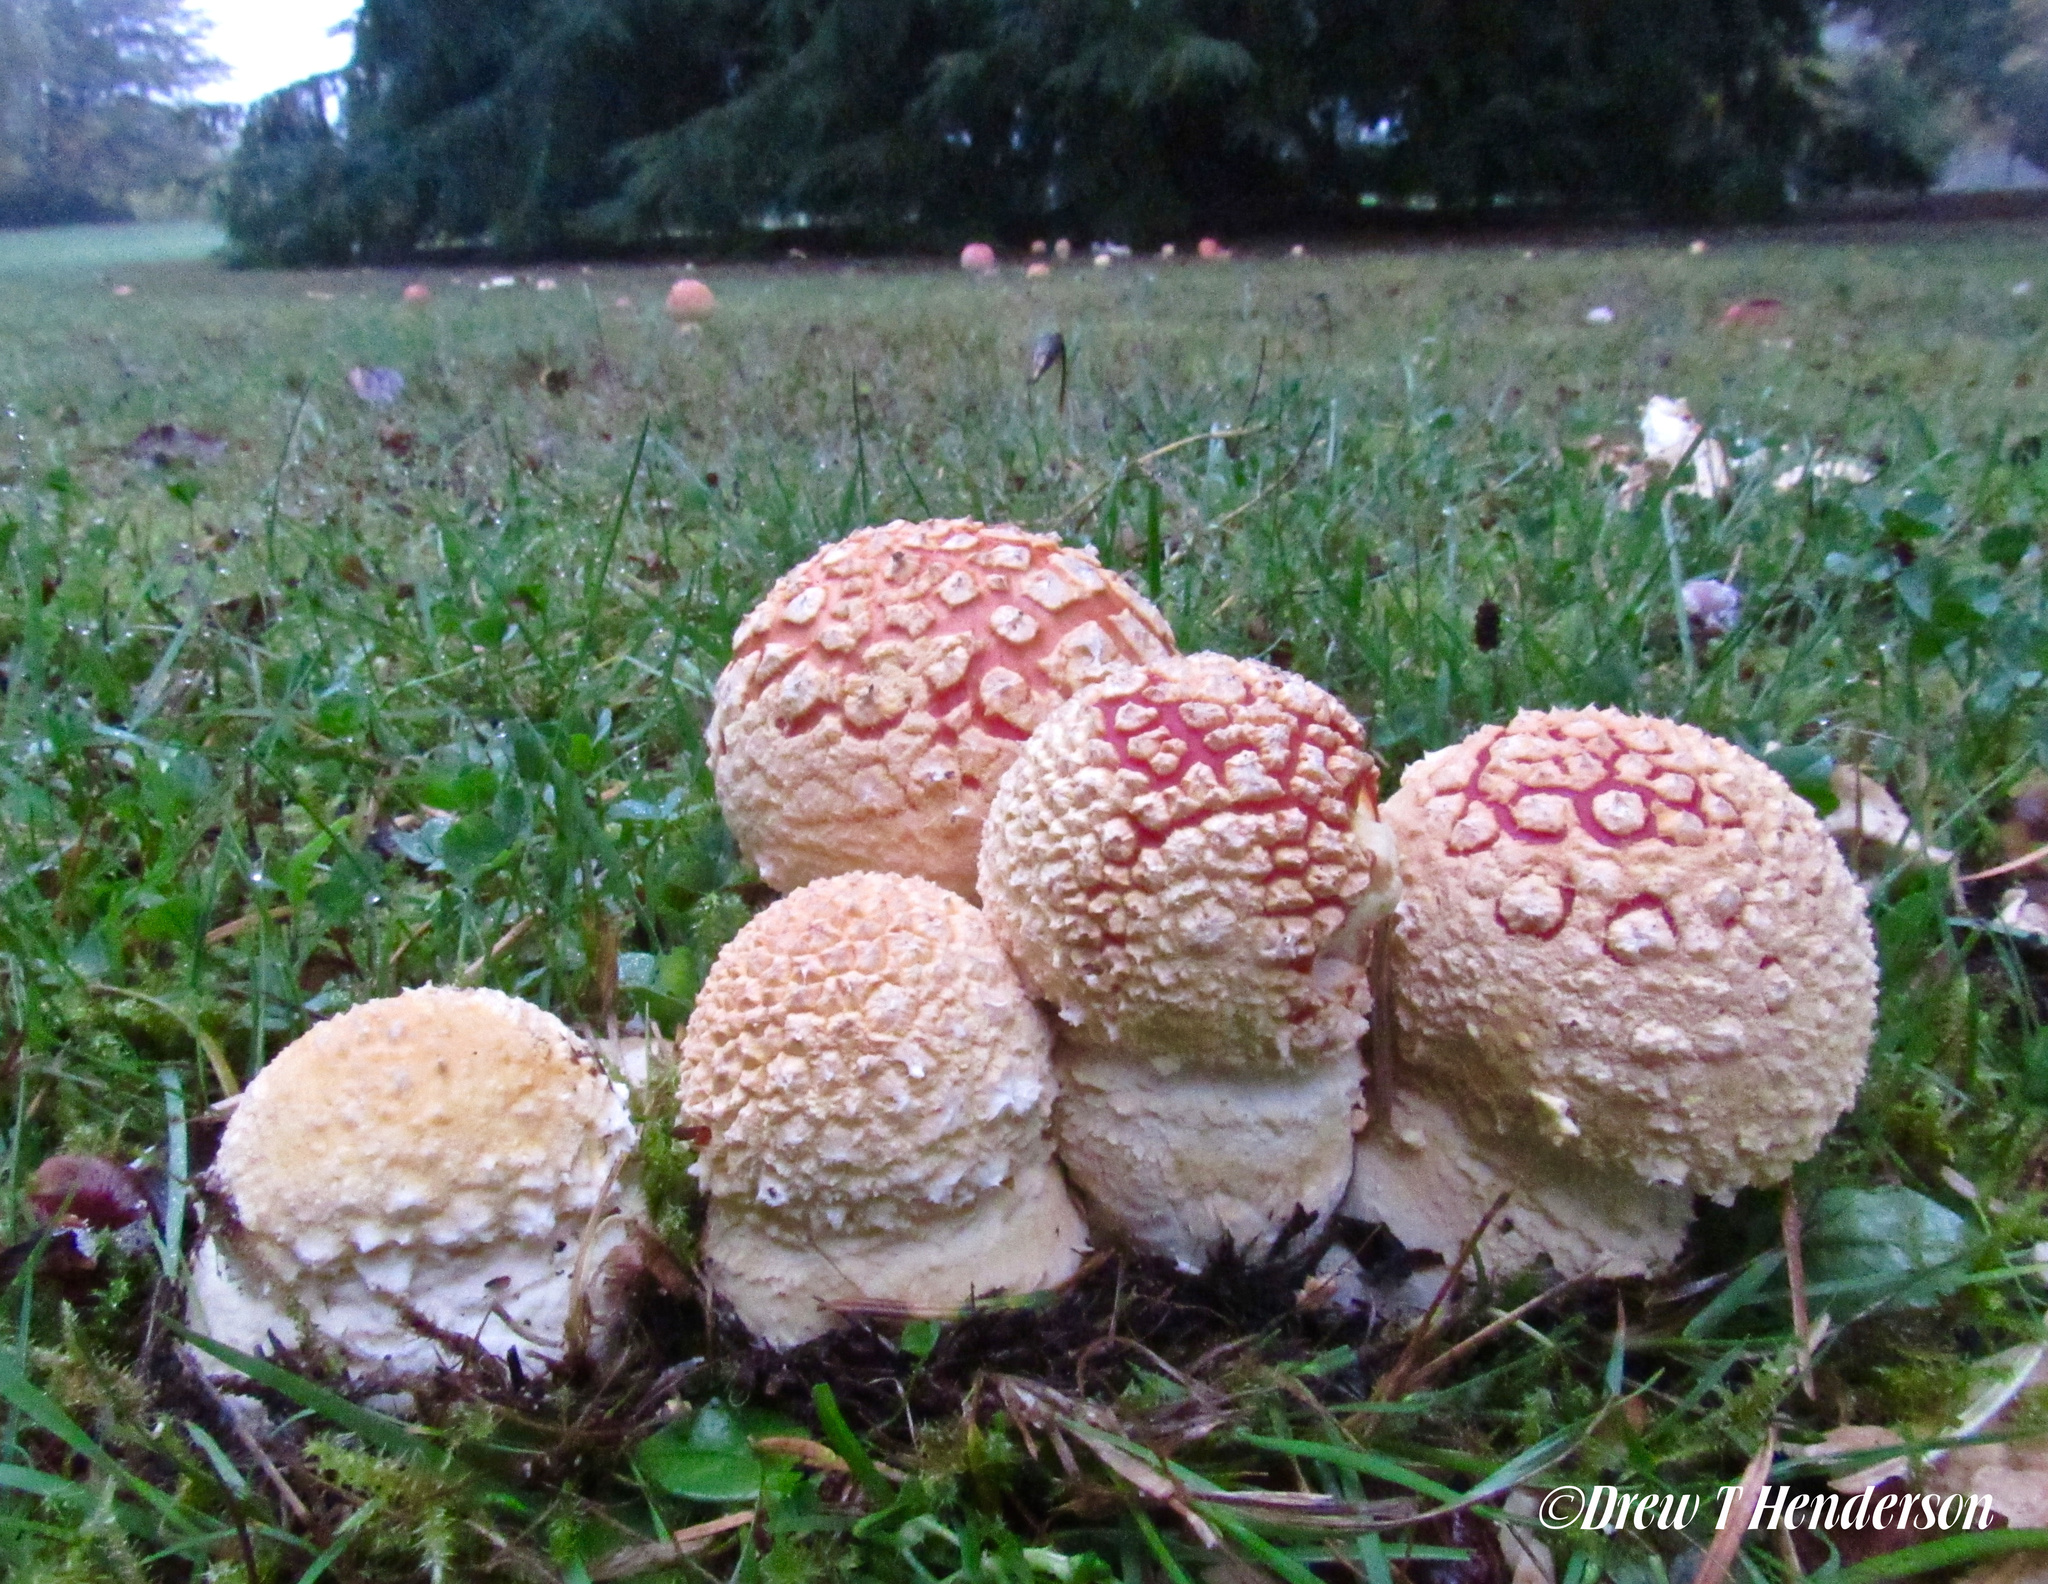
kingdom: Fungi
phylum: Basidiomycota
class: Agaricomycetes
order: Agaricales
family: Amanitaceae
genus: Amanita
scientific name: Amanita muscaria
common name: Fly agaric
